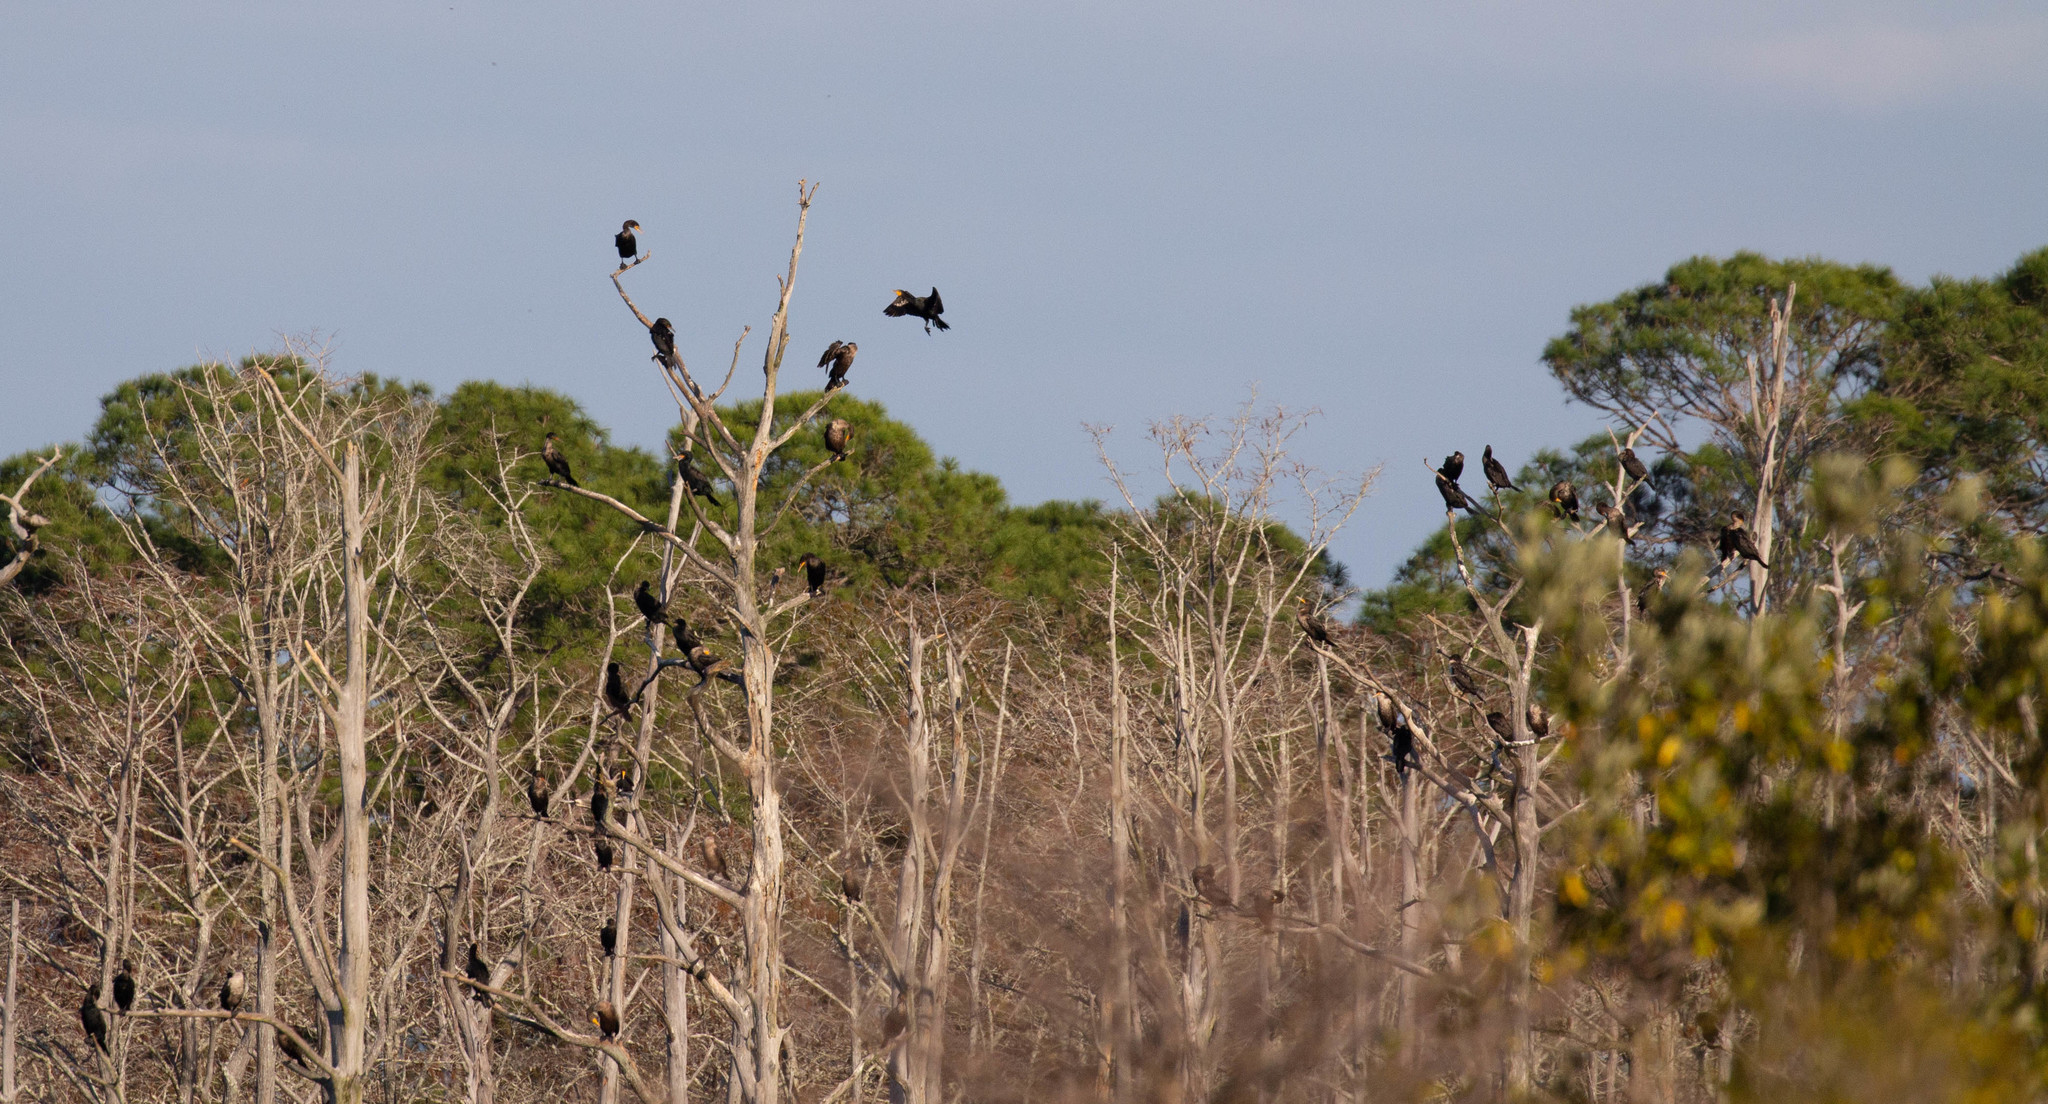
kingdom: Animalia
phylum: Chordata
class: Aves
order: Suliformes
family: Phalacrocoracidae
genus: Phalacrocorax
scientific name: Phalacrocorax auritus
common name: Double-crested cormorant
